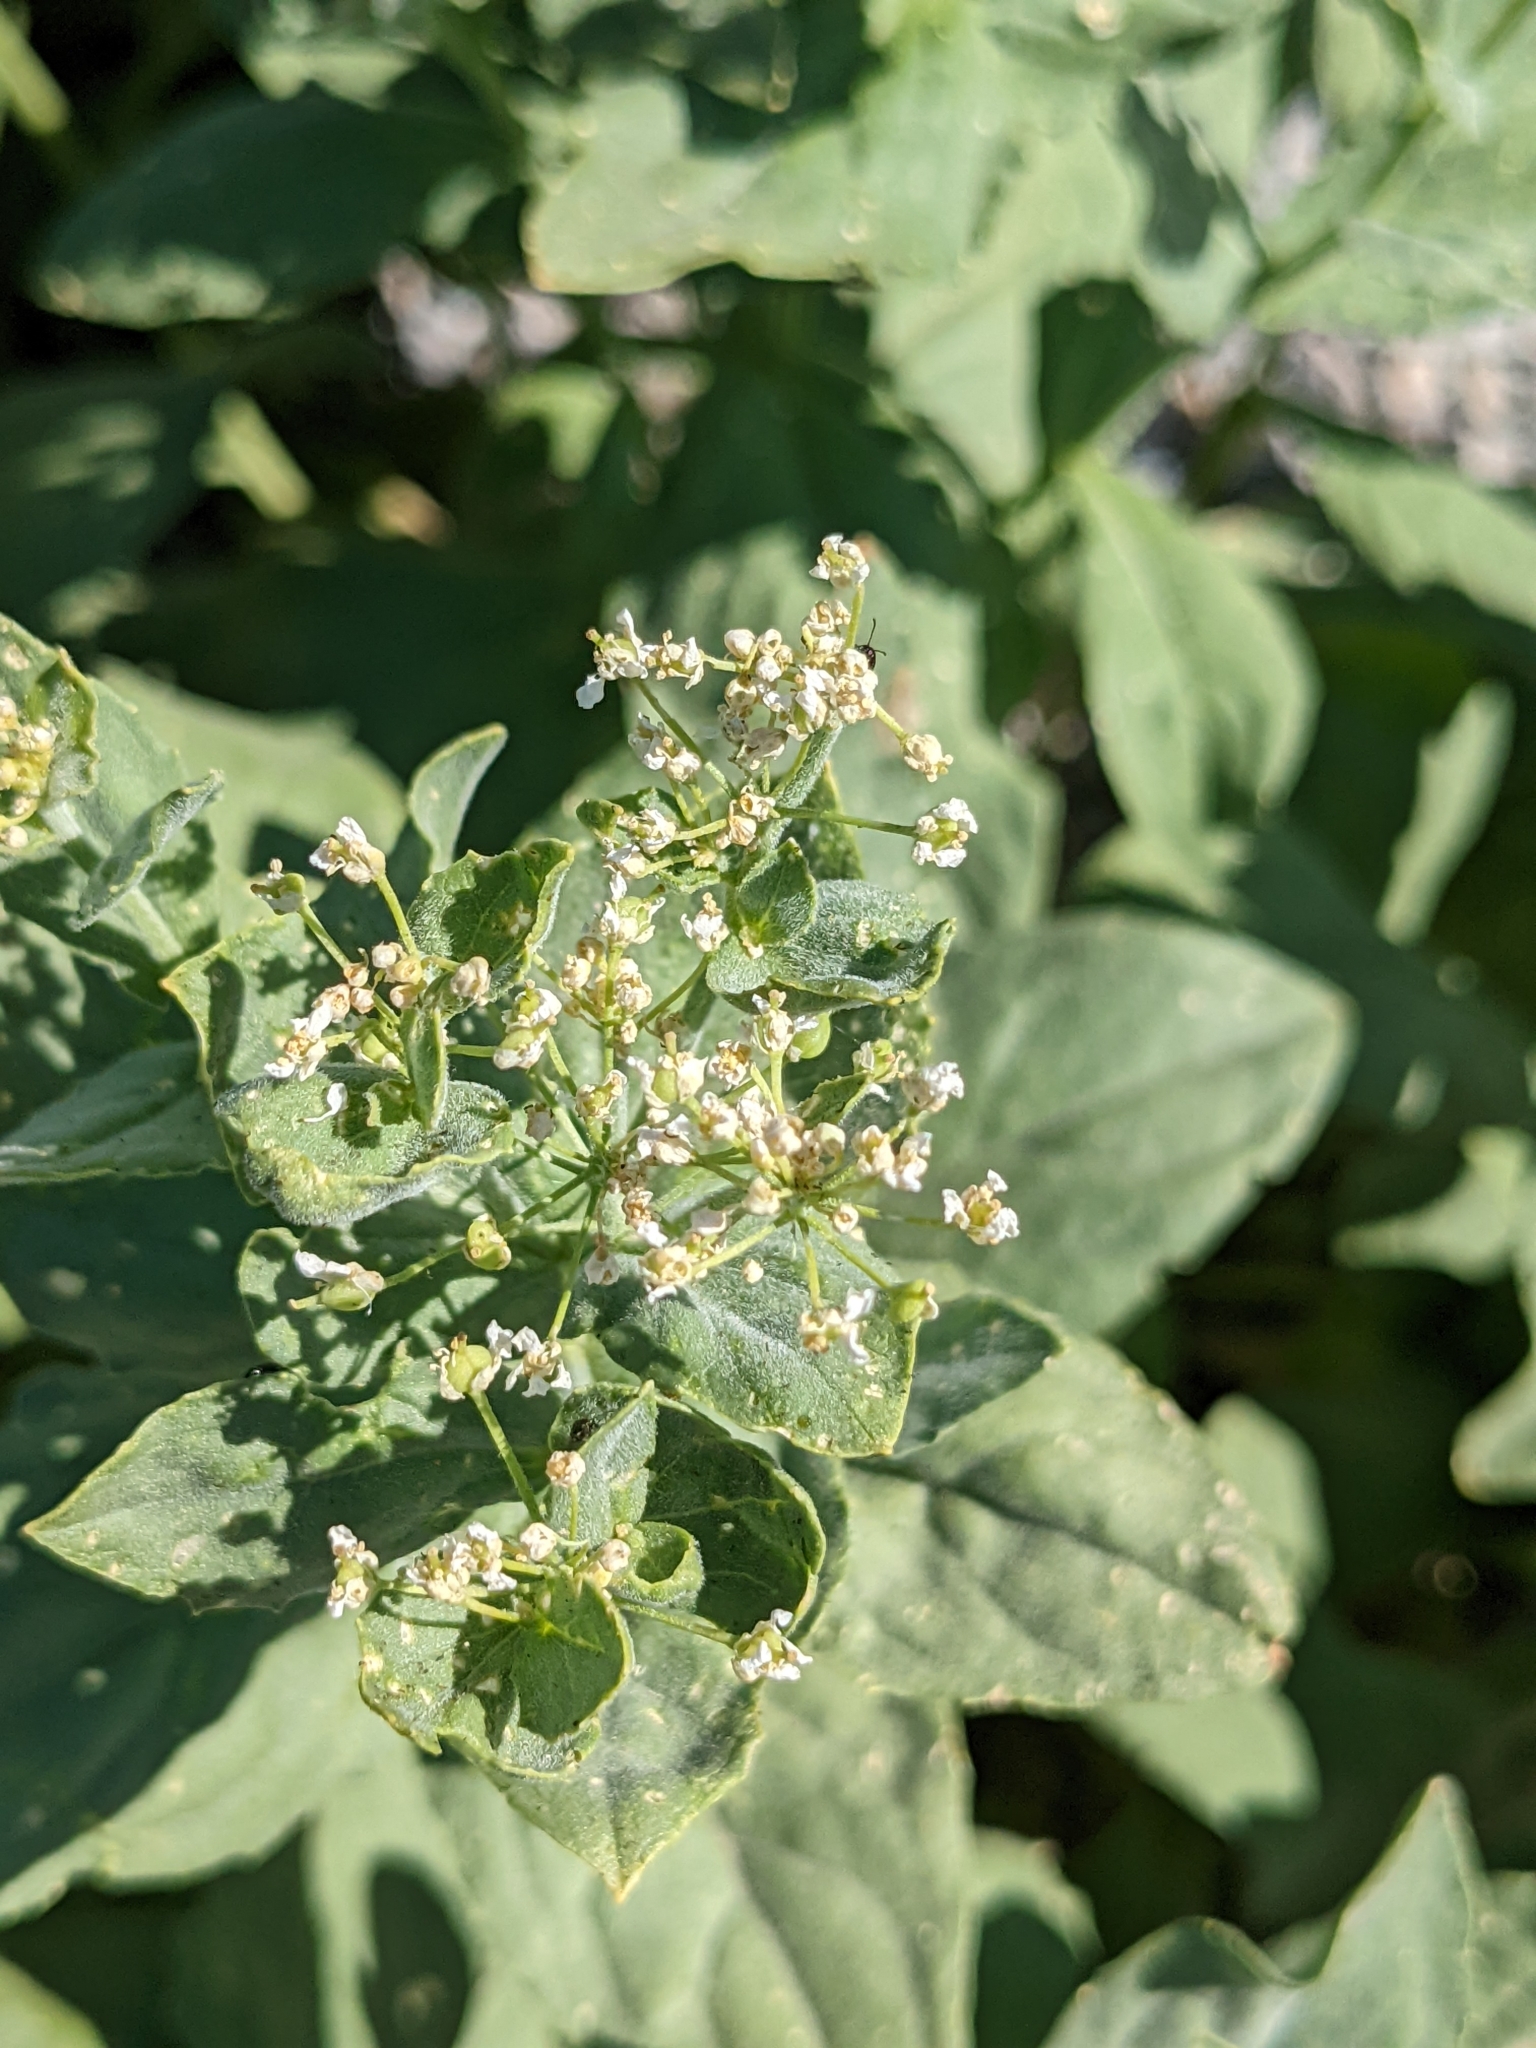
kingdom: Plantae
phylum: Tracheophyta
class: Magnoliopsida
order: Brassicales
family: Brassicaceae
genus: Lepidium
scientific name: Lepidium draba
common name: Hoary cress
